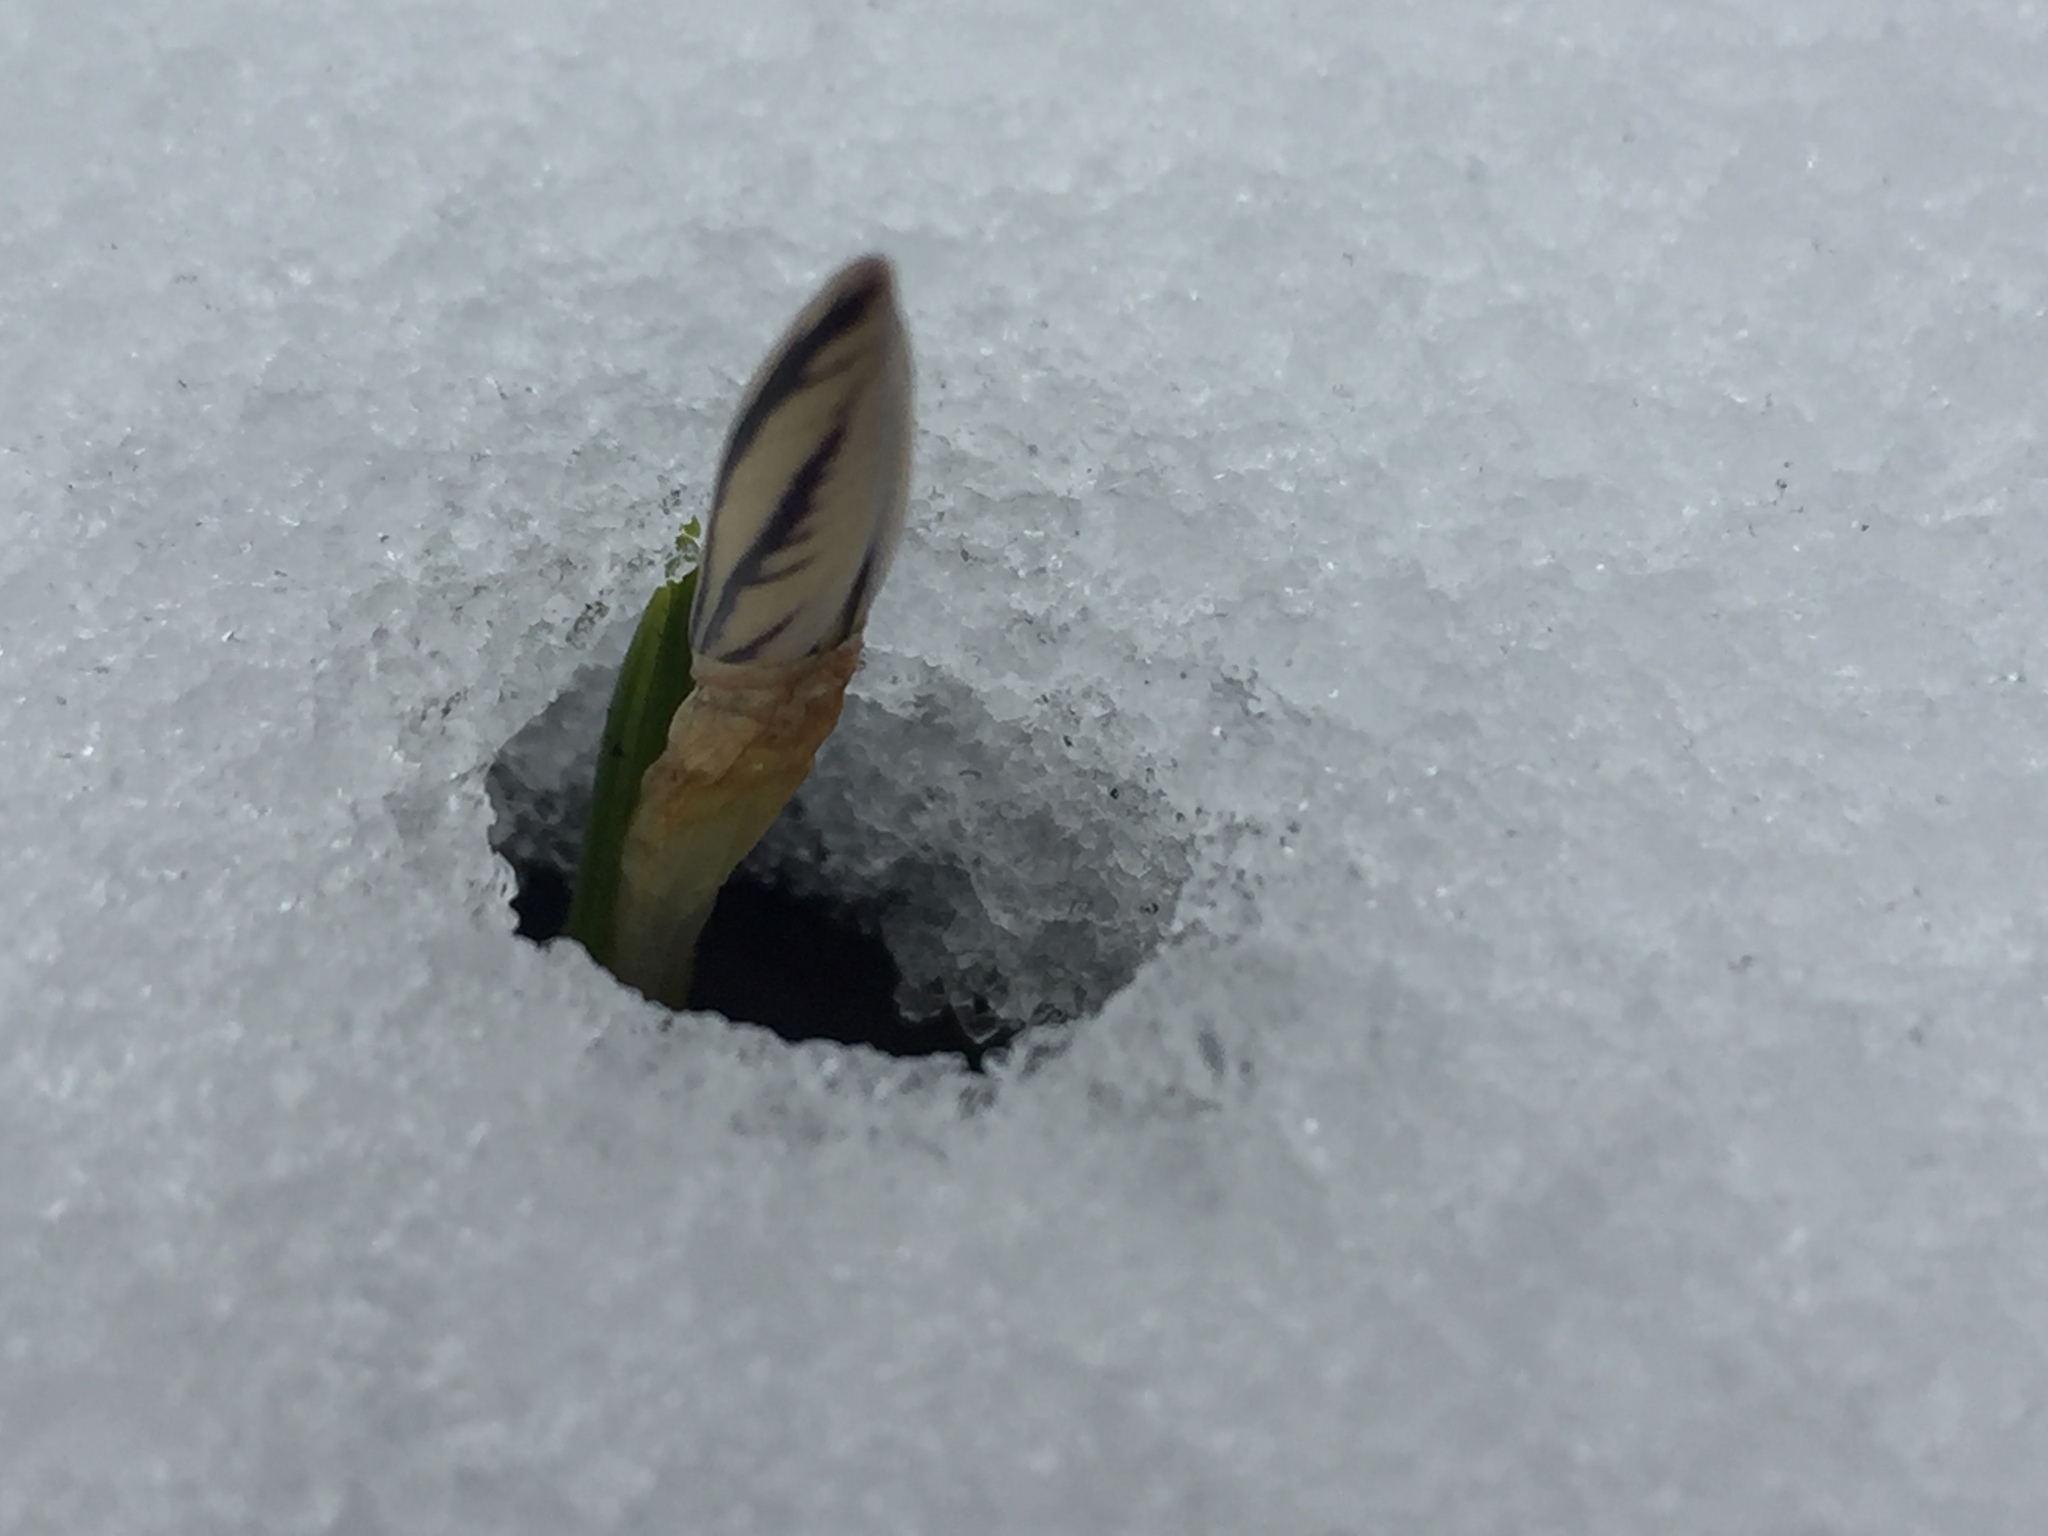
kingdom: Plantae
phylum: Tracheophyta
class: Liliopsida
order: Asparagales
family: Iridaceae
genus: Crocus
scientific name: Crocus reticulatus
